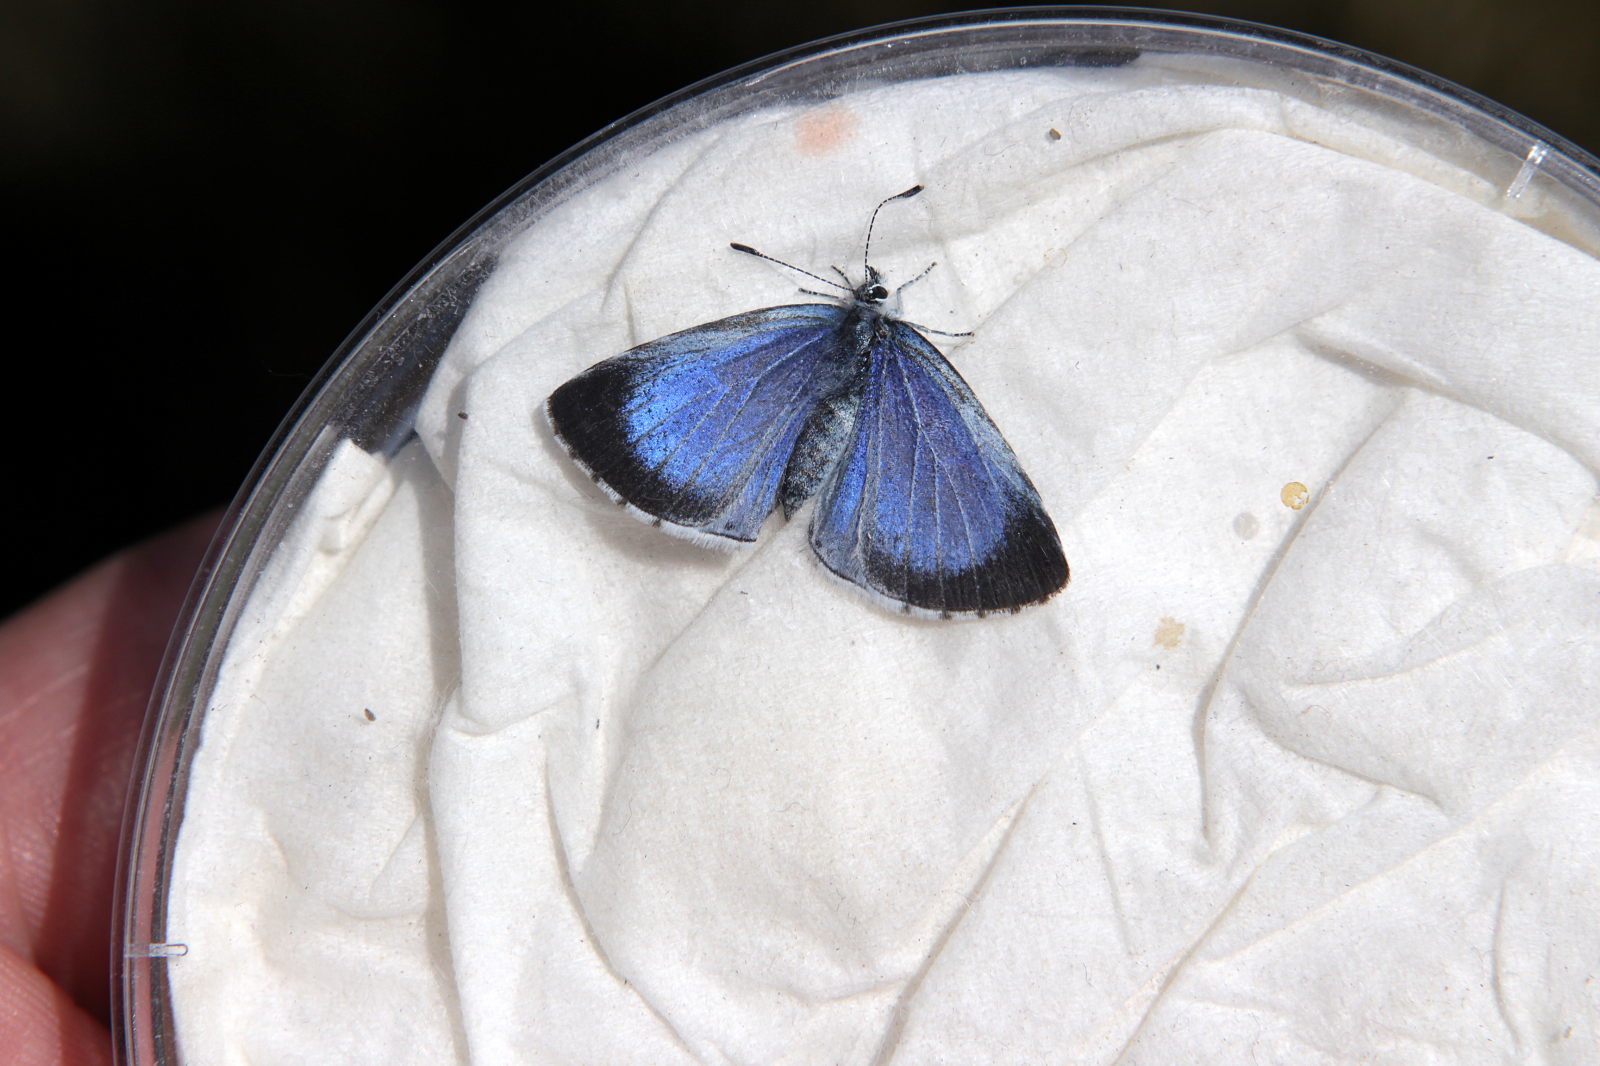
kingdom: Animalia
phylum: Arthropoda
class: Insecta
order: Lepidoptera
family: Lycaenidae
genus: Celastrina
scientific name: Celastrina argiolus
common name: Holly blue
